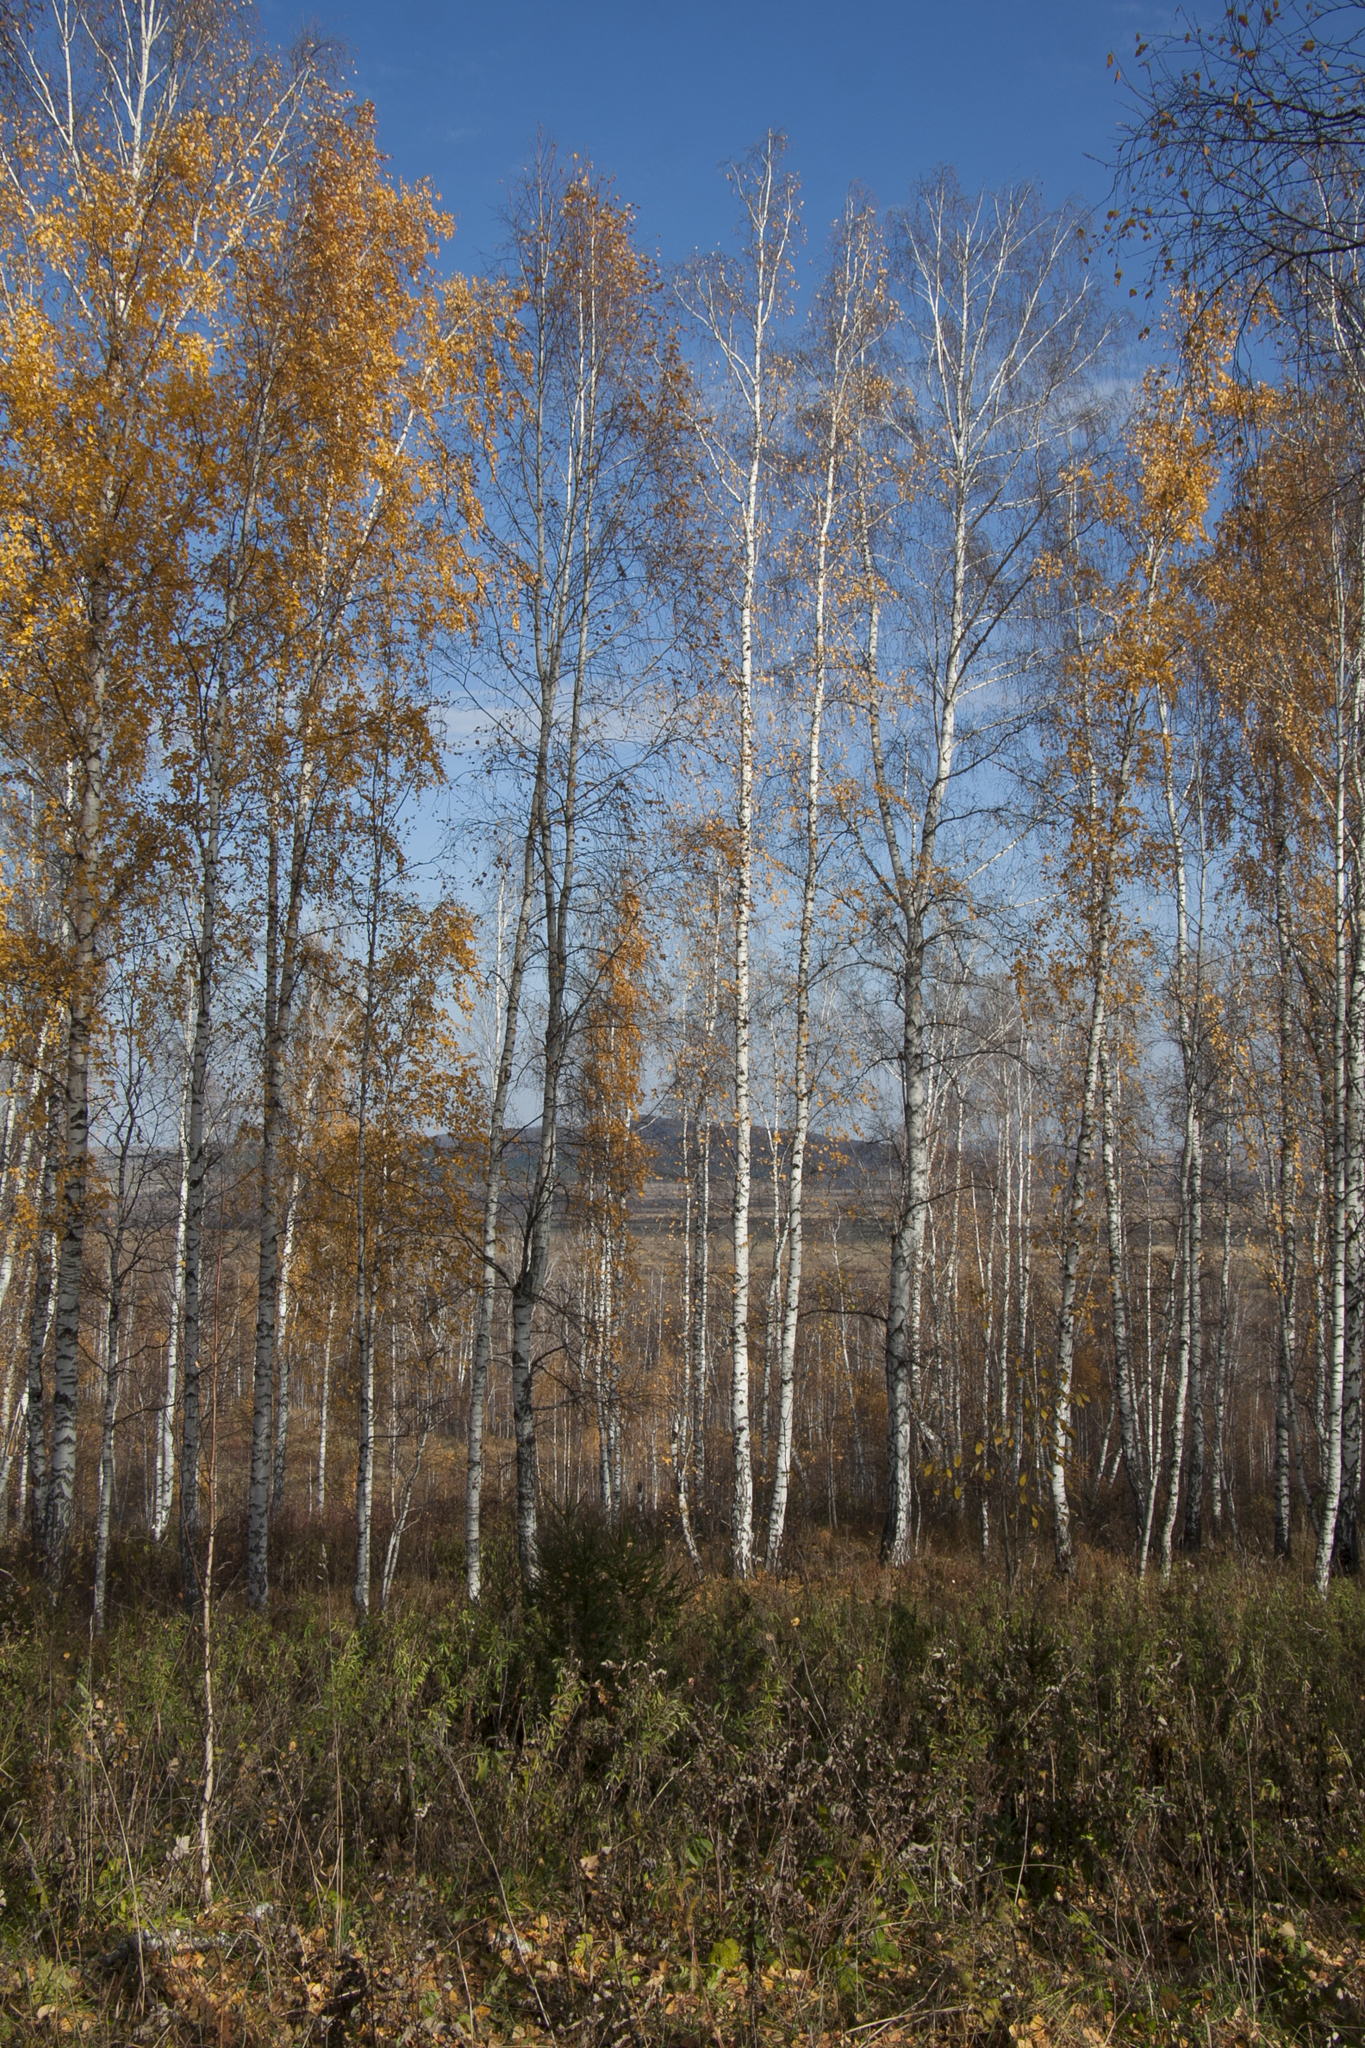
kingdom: Plantae
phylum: Tracheophyta
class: Magnoliopsida
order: Fagales
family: Betulaceae
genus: Betula
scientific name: Betula pendula
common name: Silver birch
